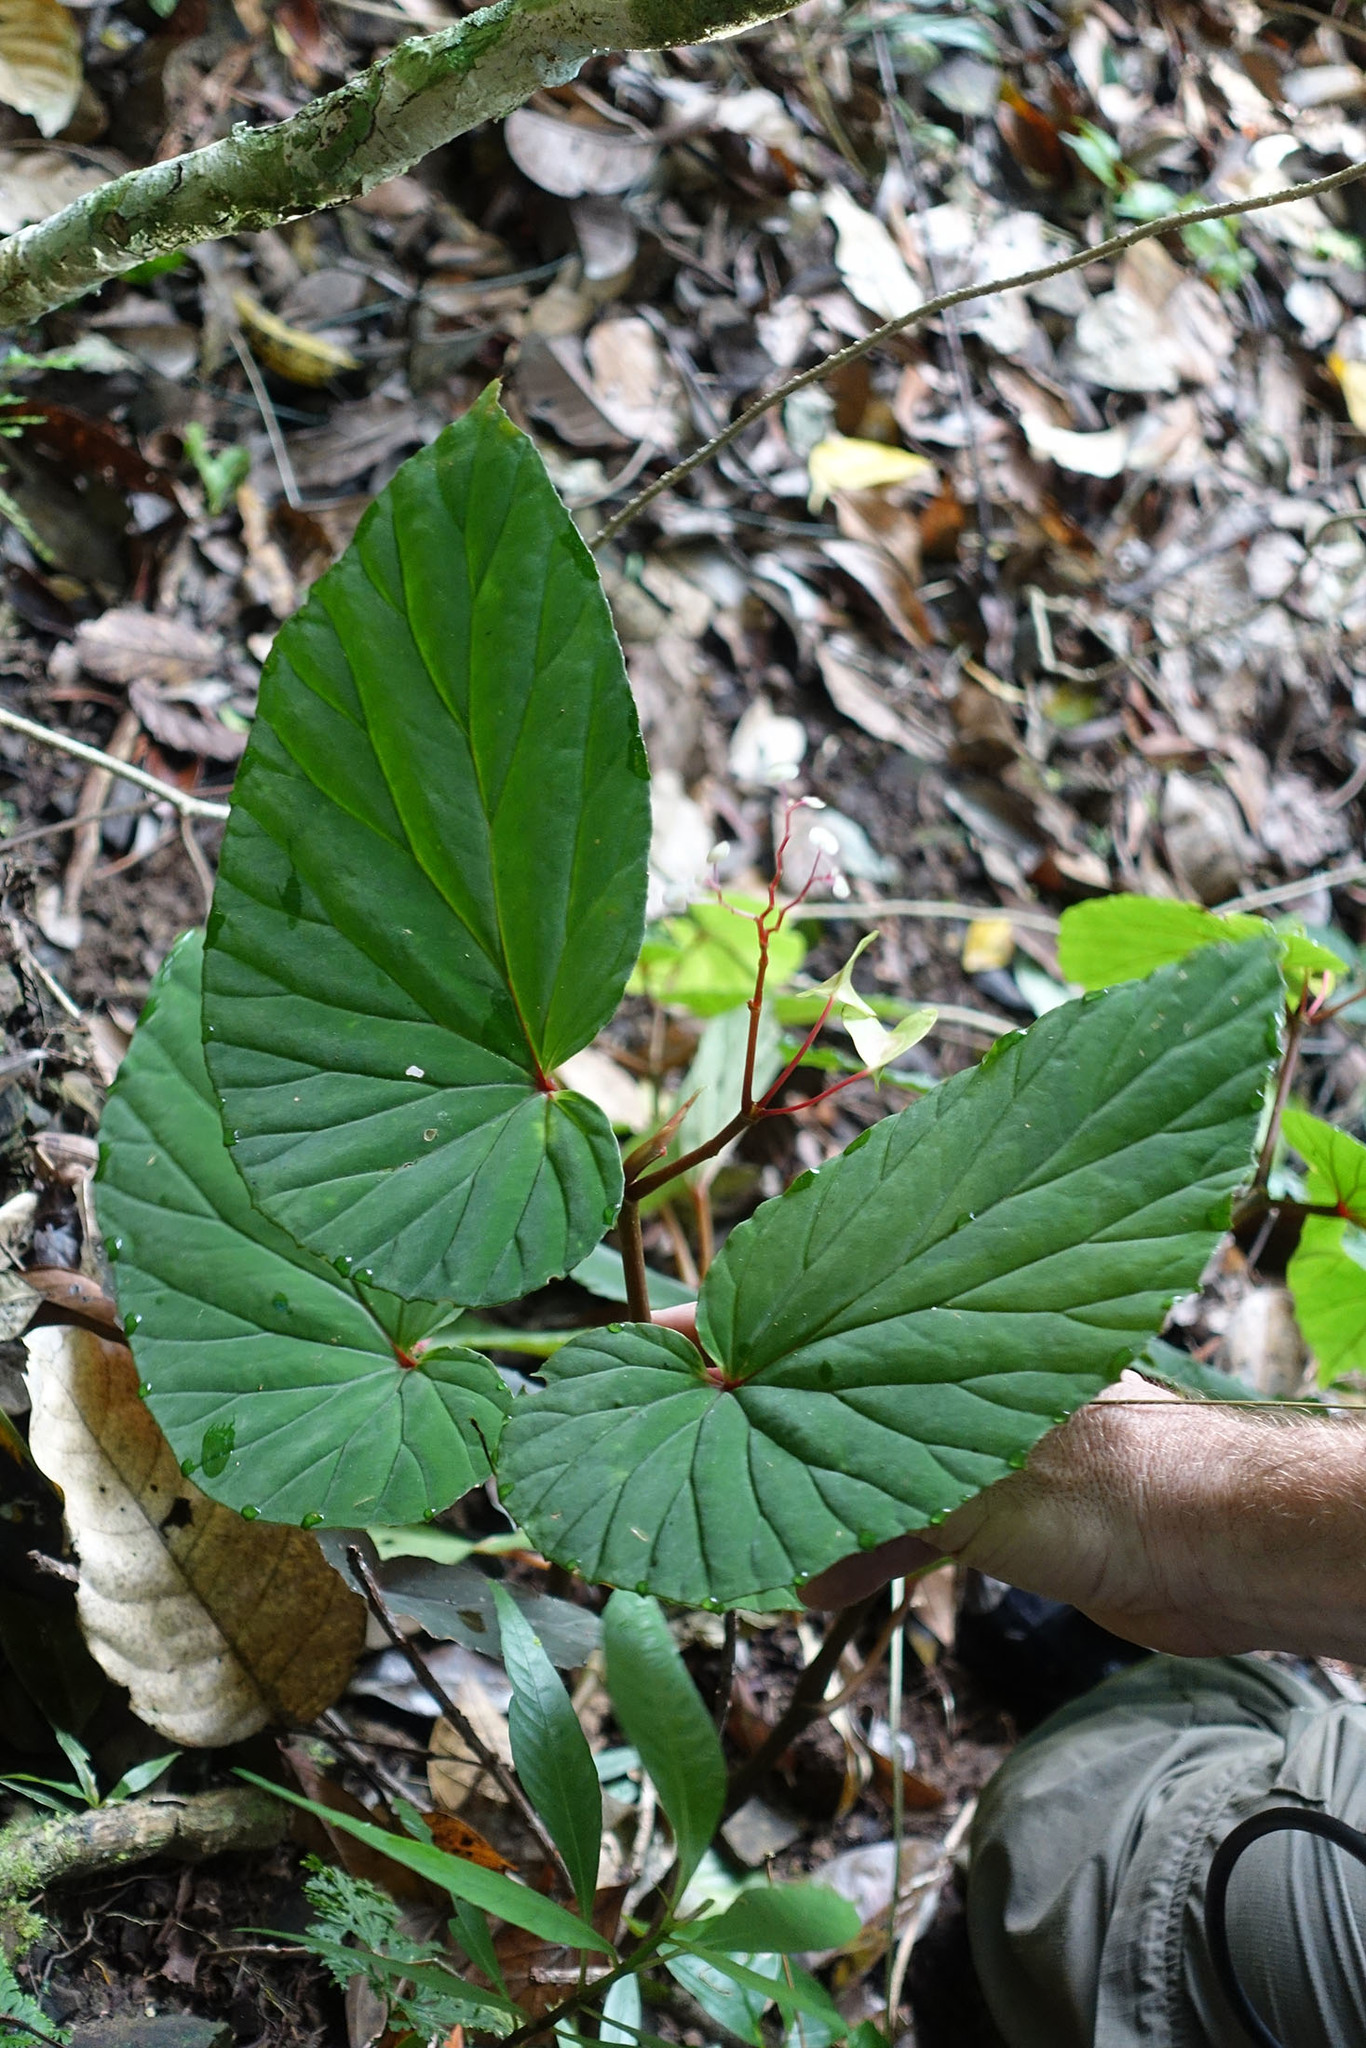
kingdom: Plantae
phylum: Tracheophyta
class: Magnoliopsida
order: Cucurbitales
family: Begoniaceae
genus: Begonia
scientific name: Begonia augustae
